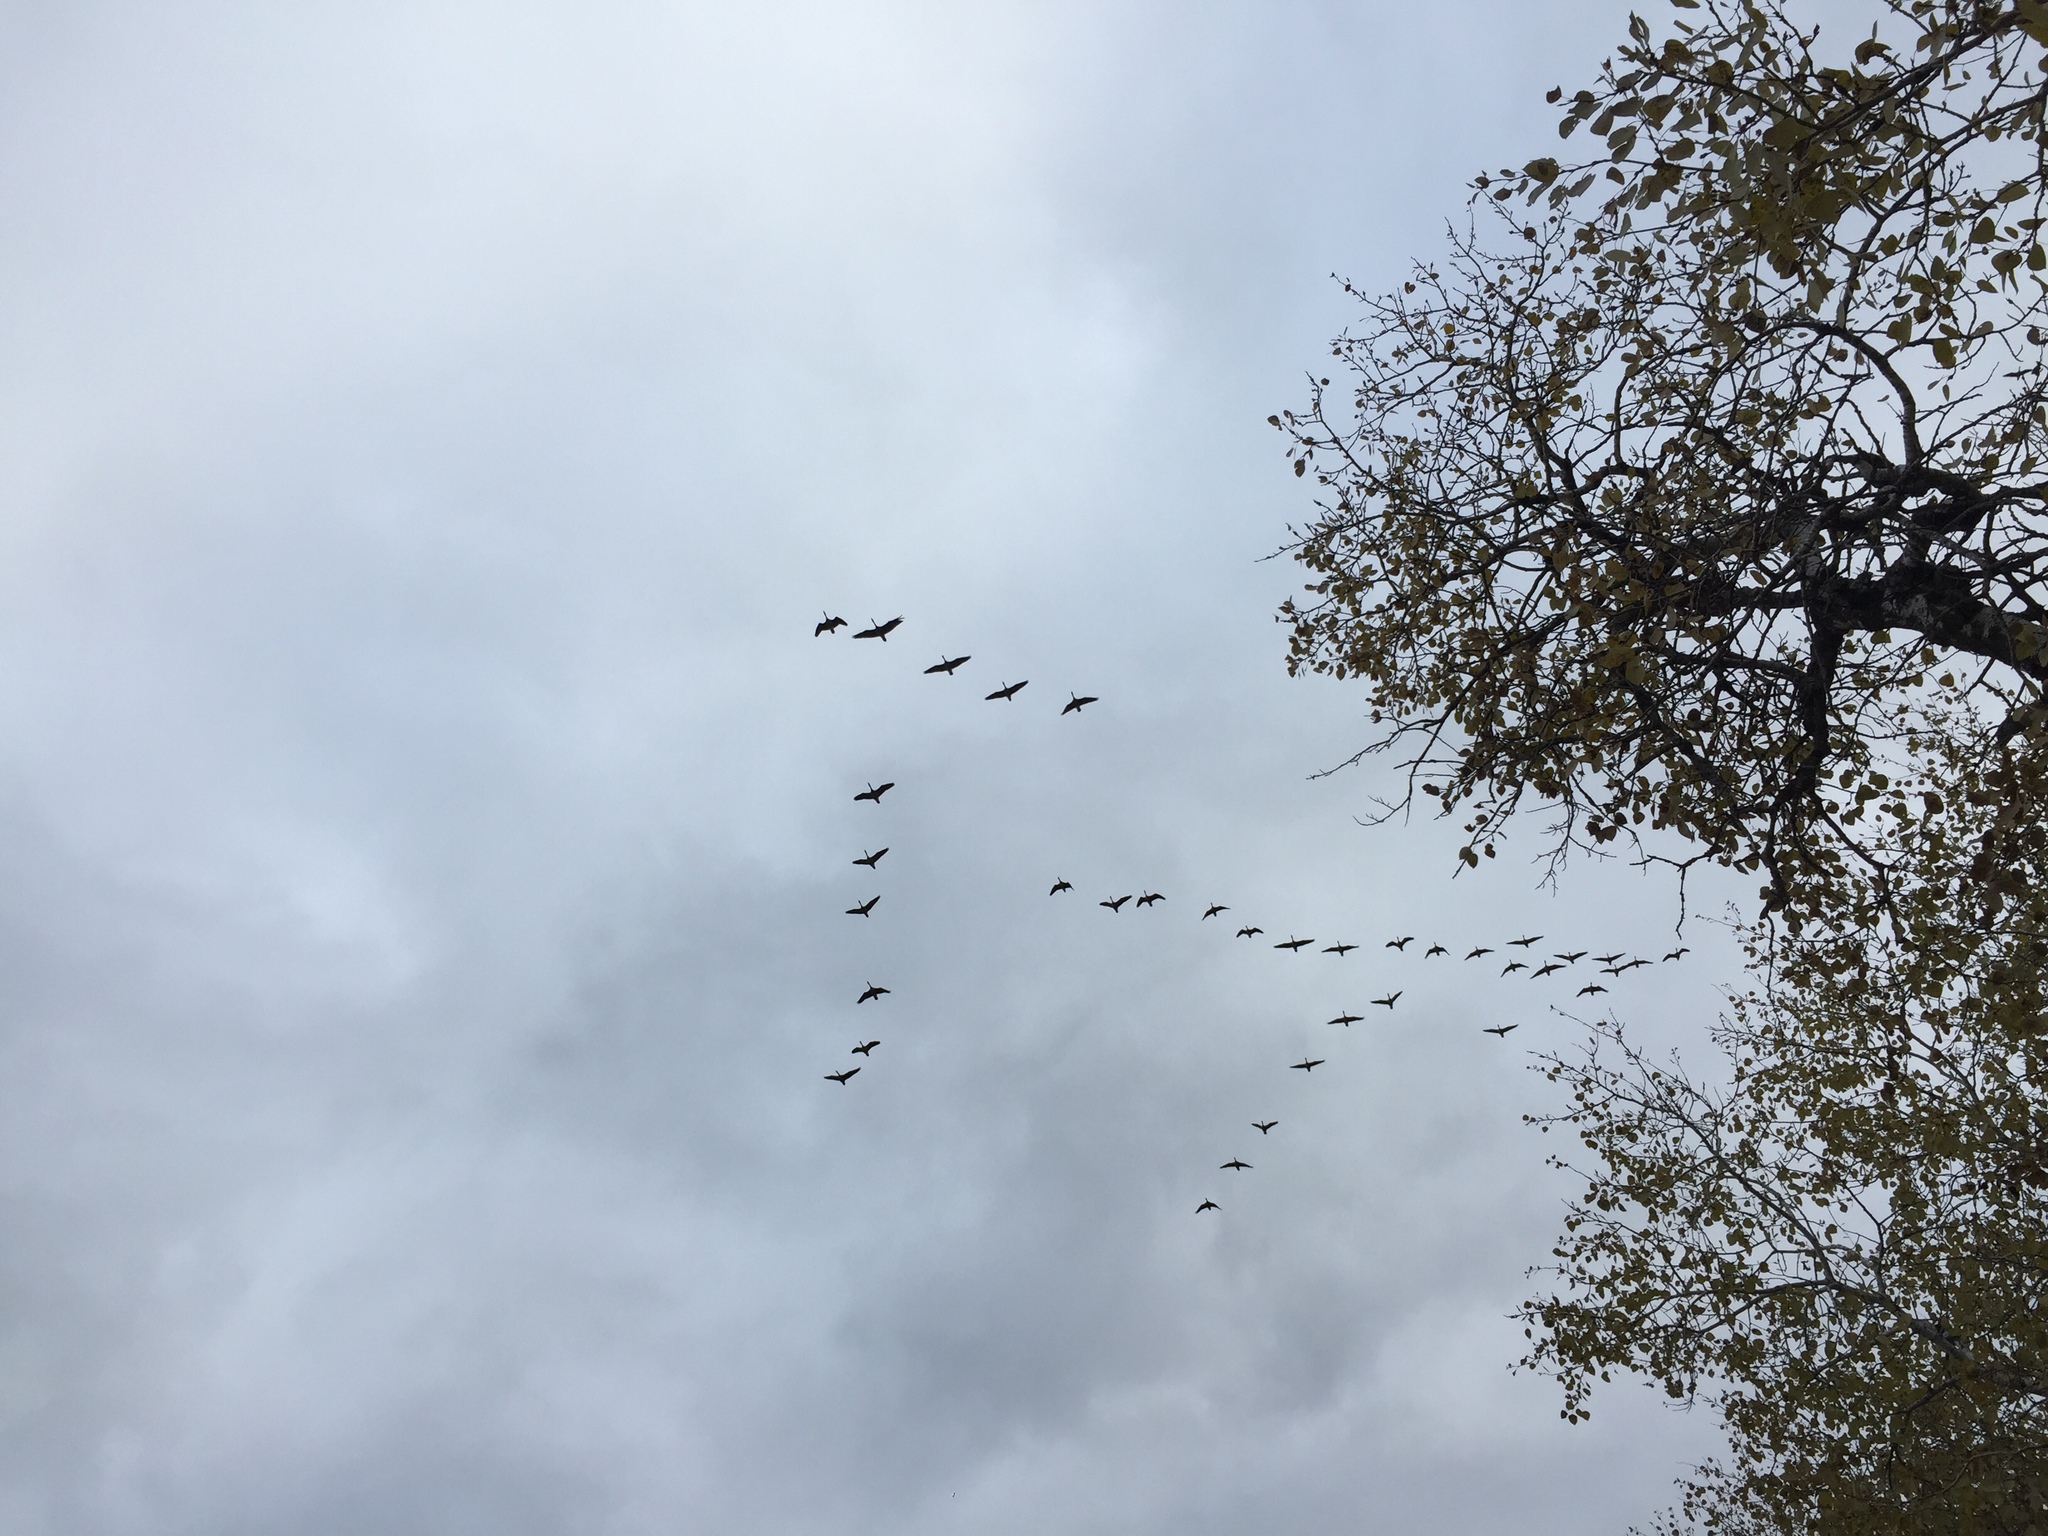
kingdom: Animalia
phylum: Chordata
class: Aves
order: Anseriformes
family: Anatidae
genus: Branta
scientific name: Branta canadensis
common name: Canada goose
